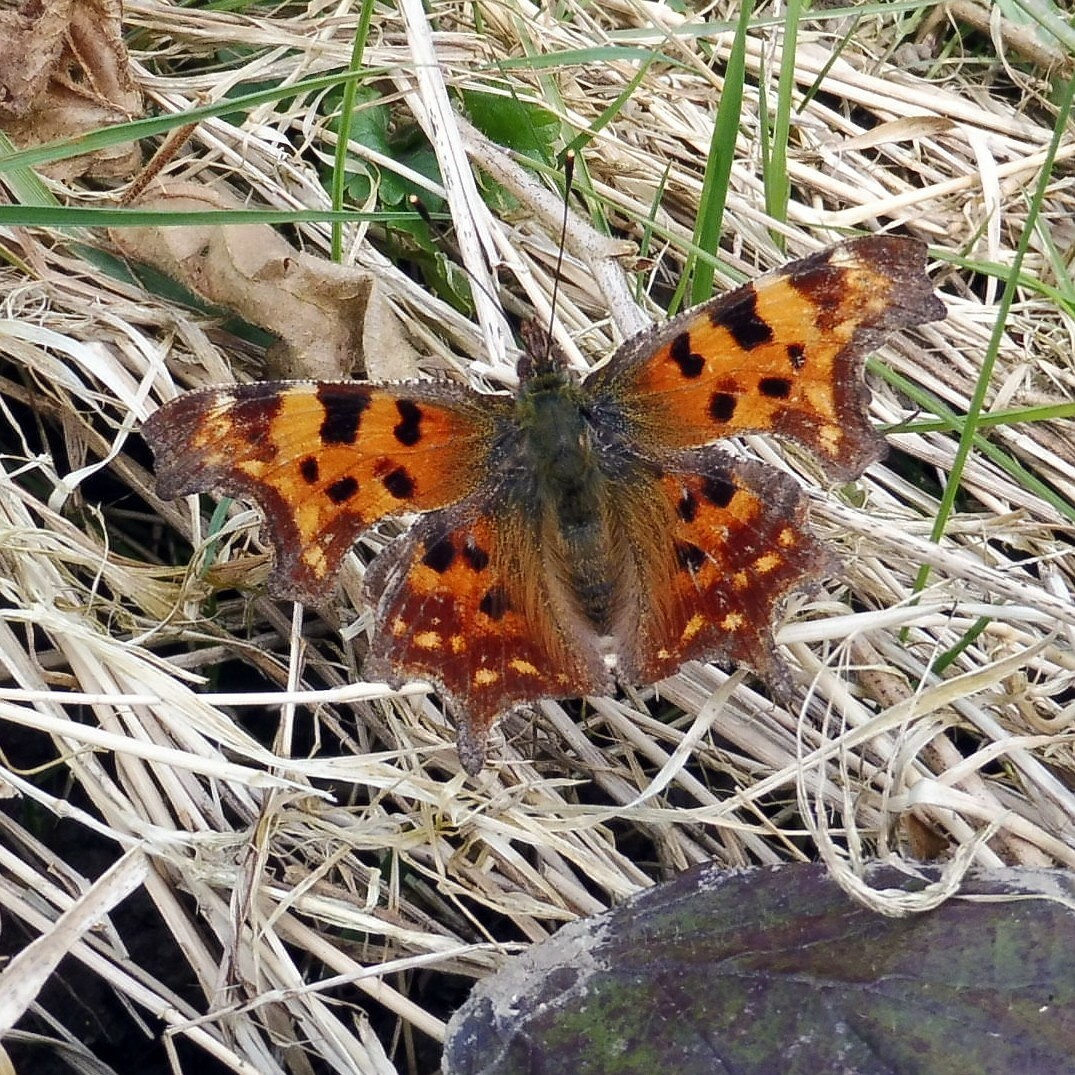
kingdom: Animalia
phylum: Arthropoda
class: Insecta
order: Lepidoptera
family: Nymphalidae
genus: Polygonia
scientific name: Polygonia c-album
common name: Comma
